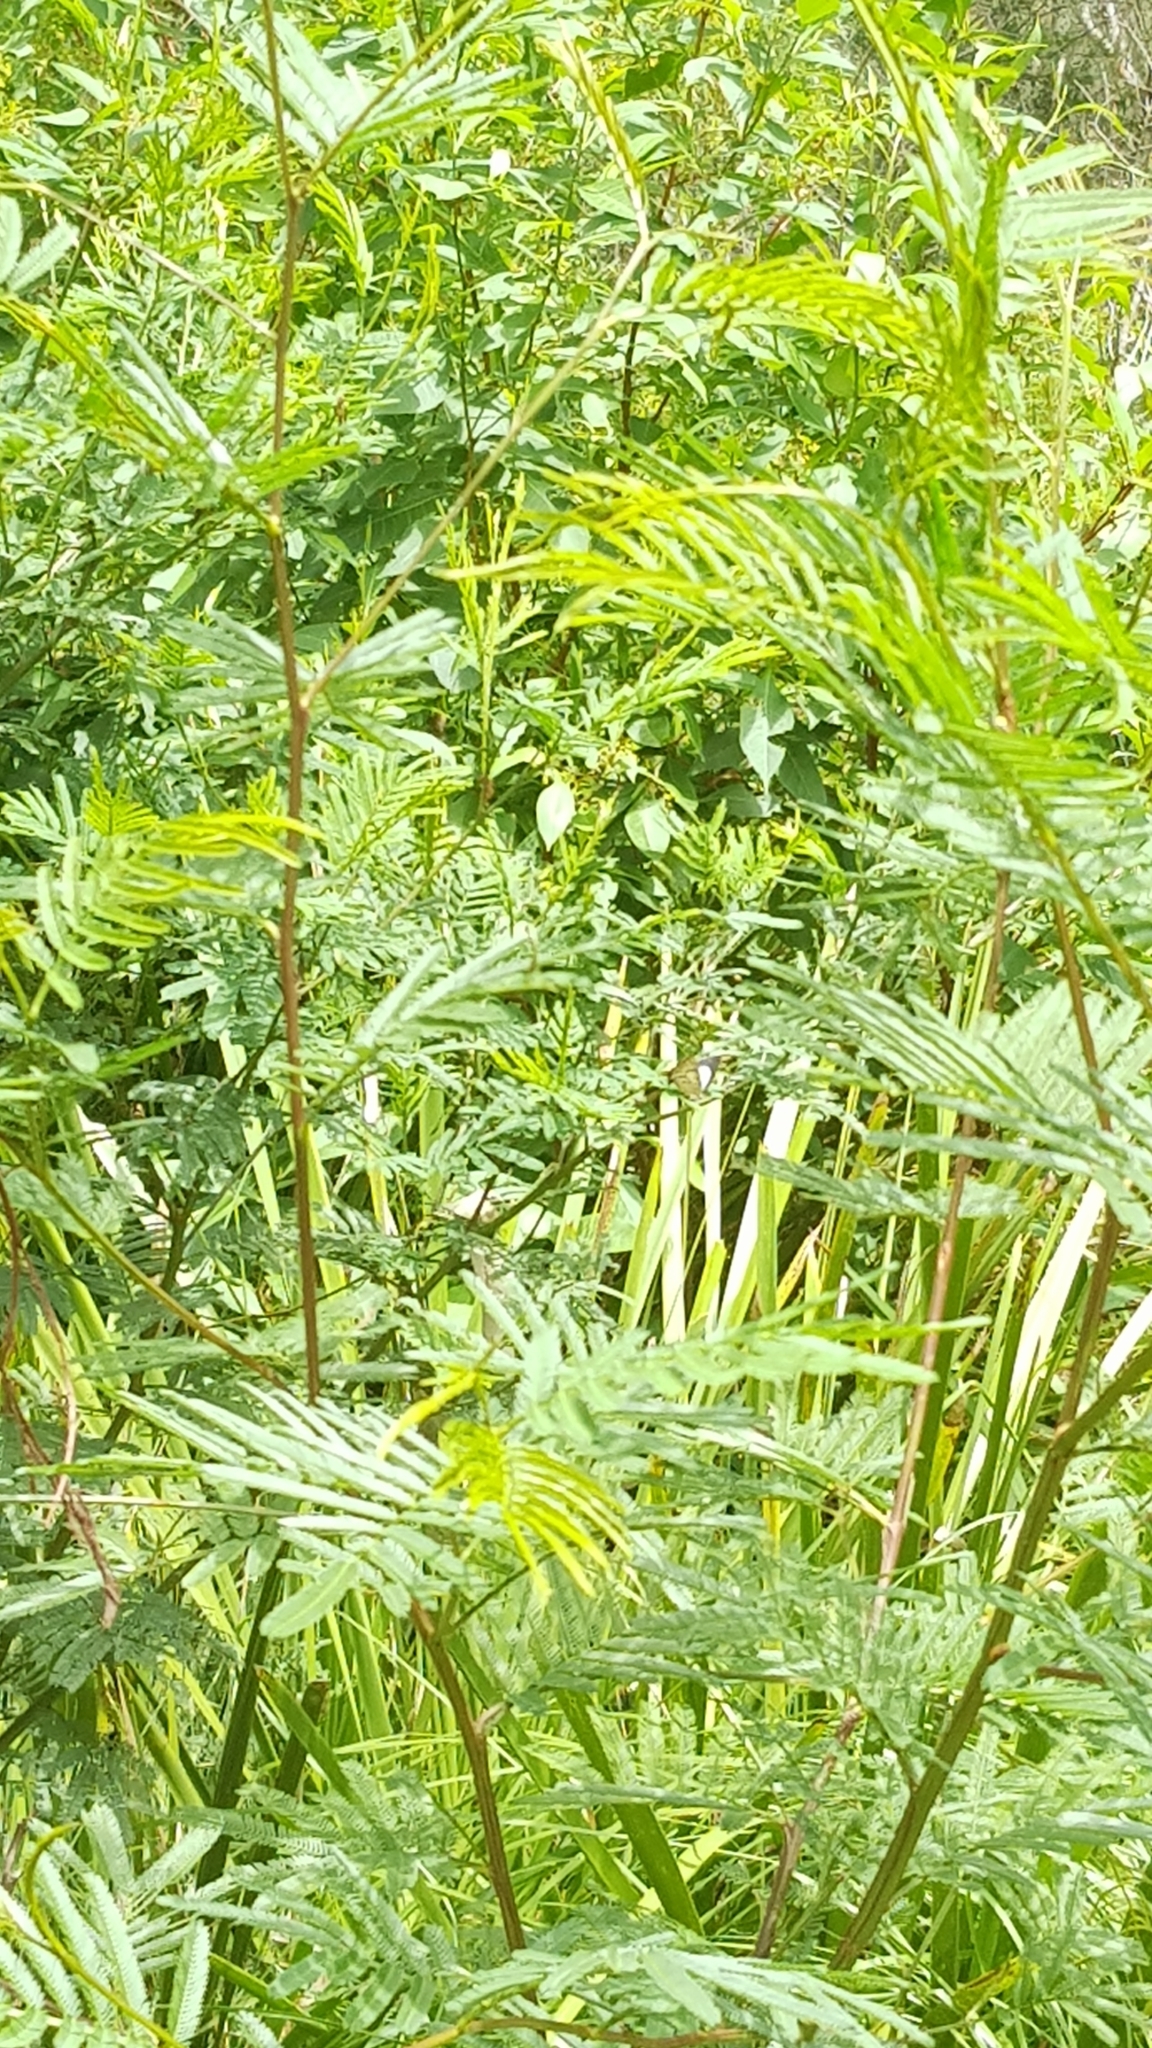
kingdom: Animalia
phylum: Arthropoda
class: Insecta
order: Lepidoptera
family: Lycaenidae
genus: Jalmenus
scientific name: Jalmenus evagoras
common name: Common imperial blue
